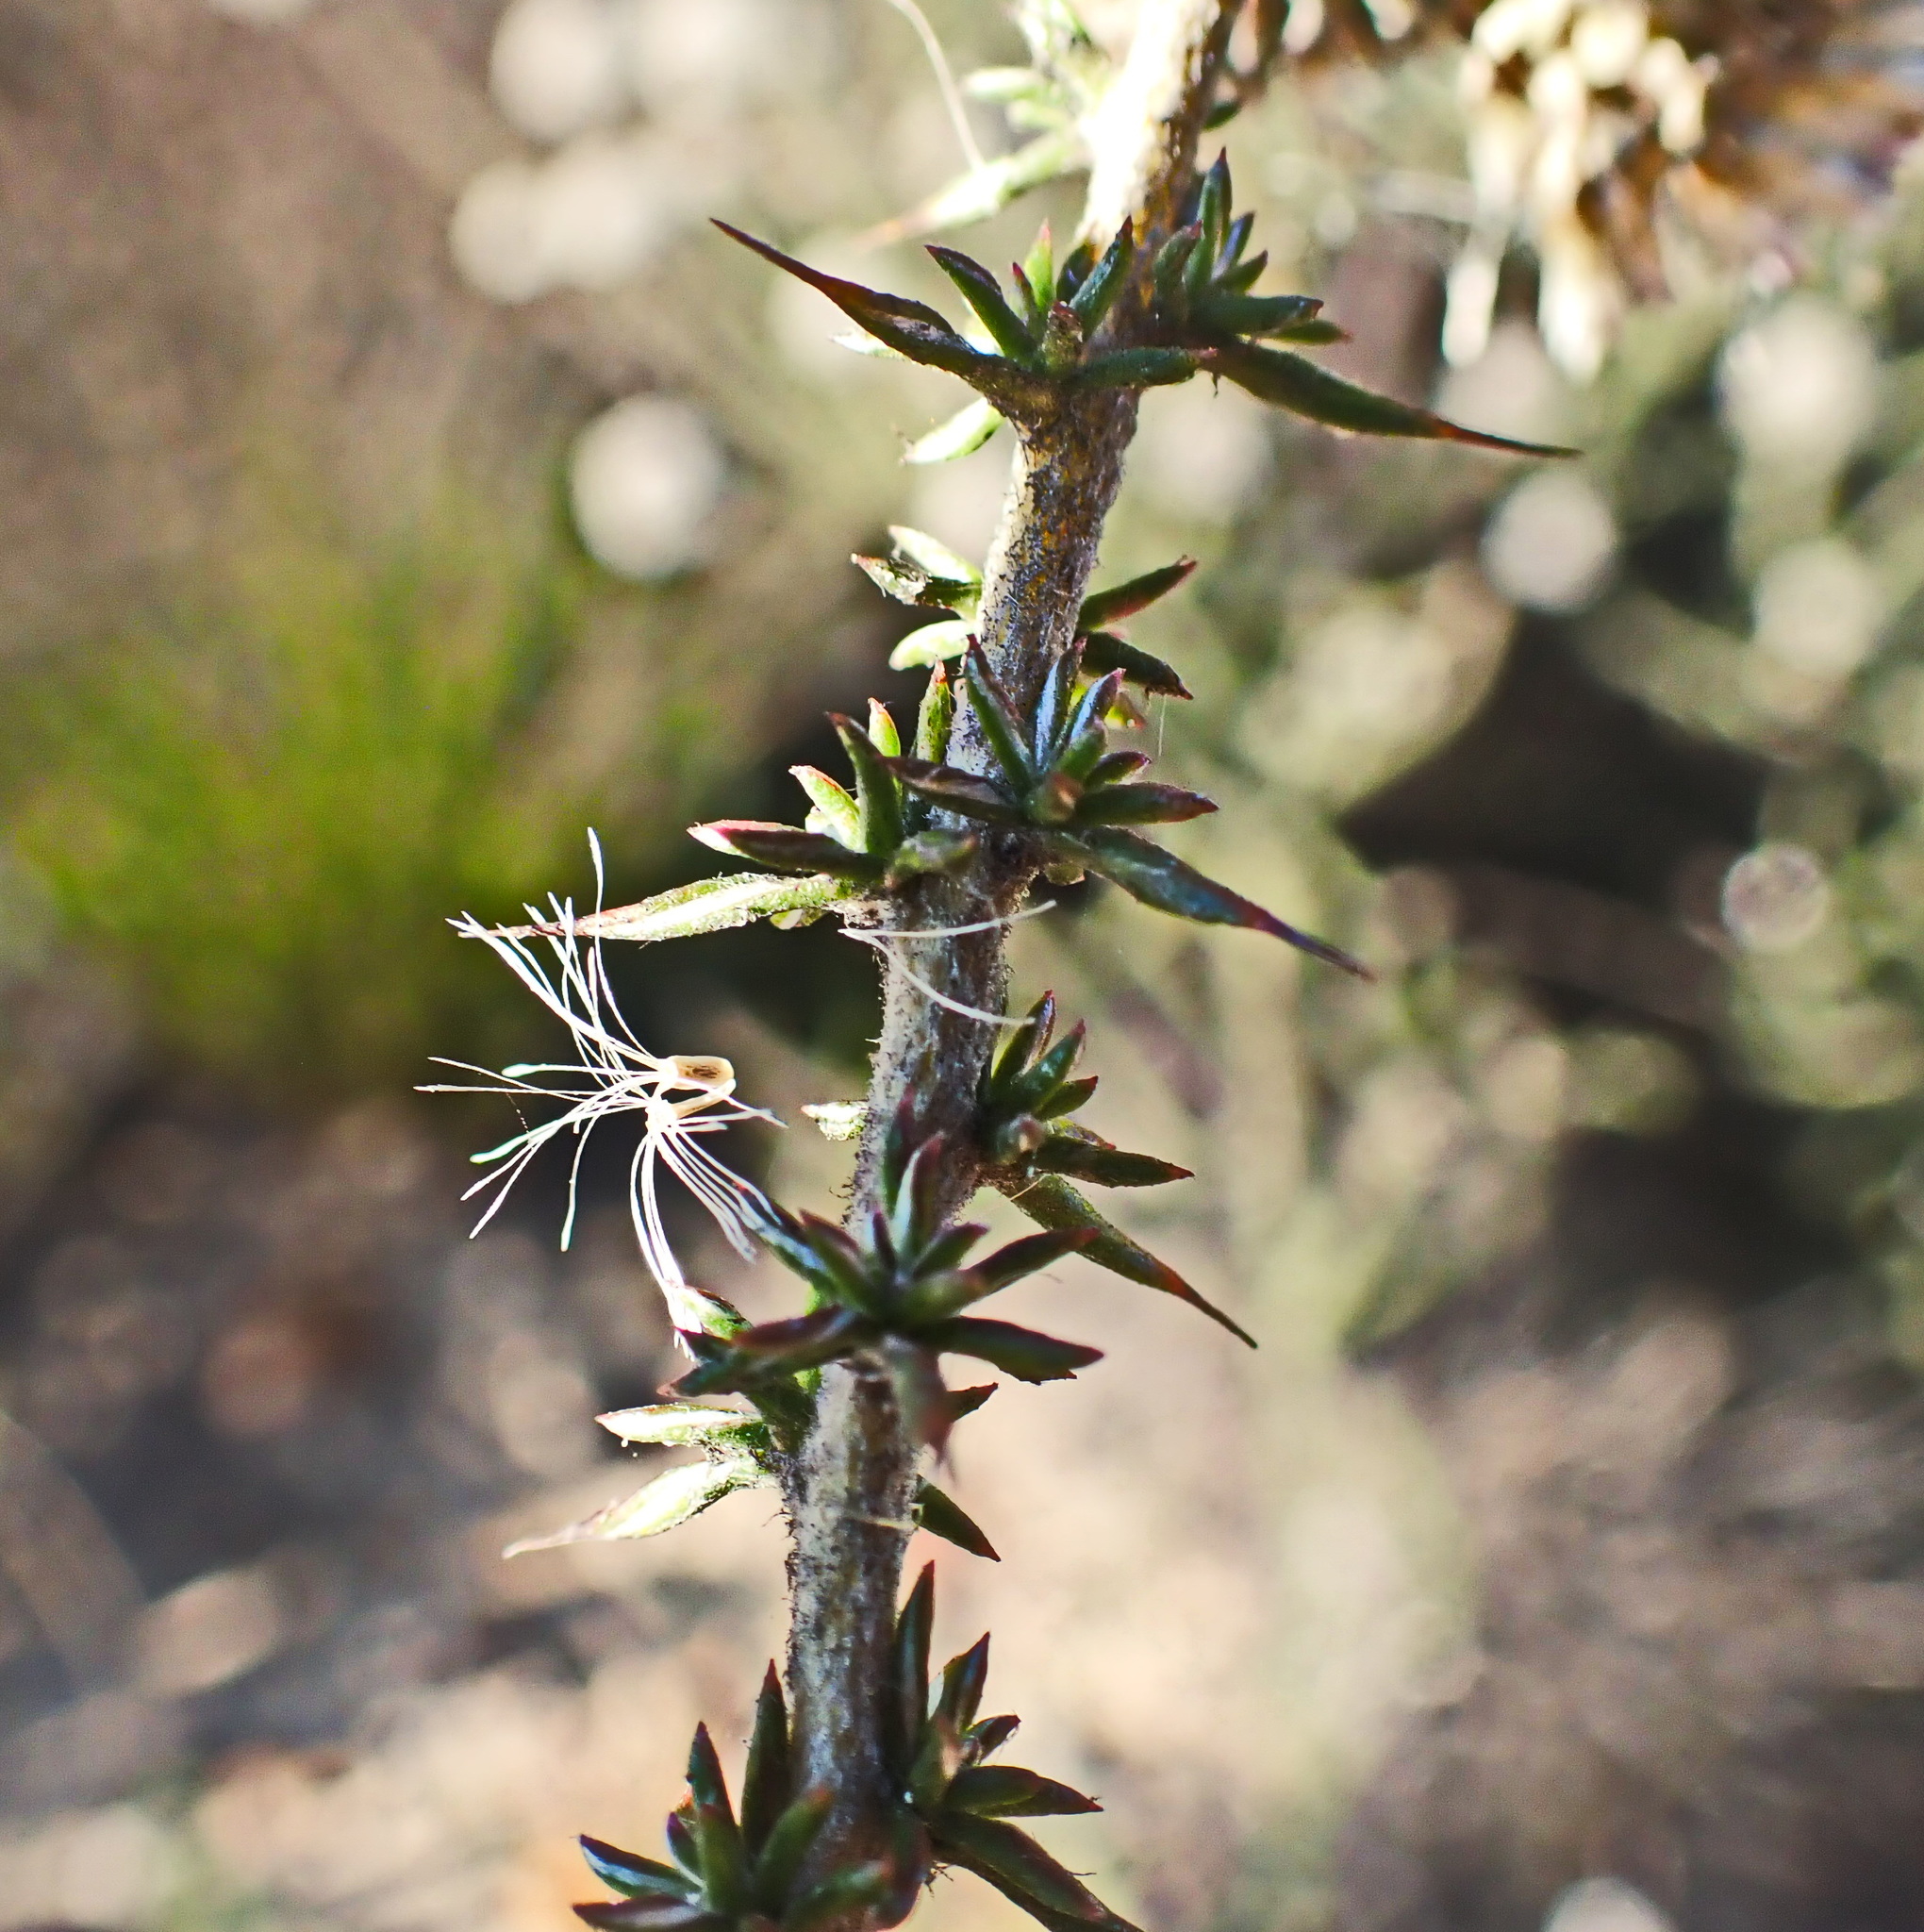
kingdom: Plantae
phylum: Tracheophyta
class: Magnoliopsida
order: Asterales
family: Asteraceae
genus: Metalasia
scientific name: Metalasia acuta
